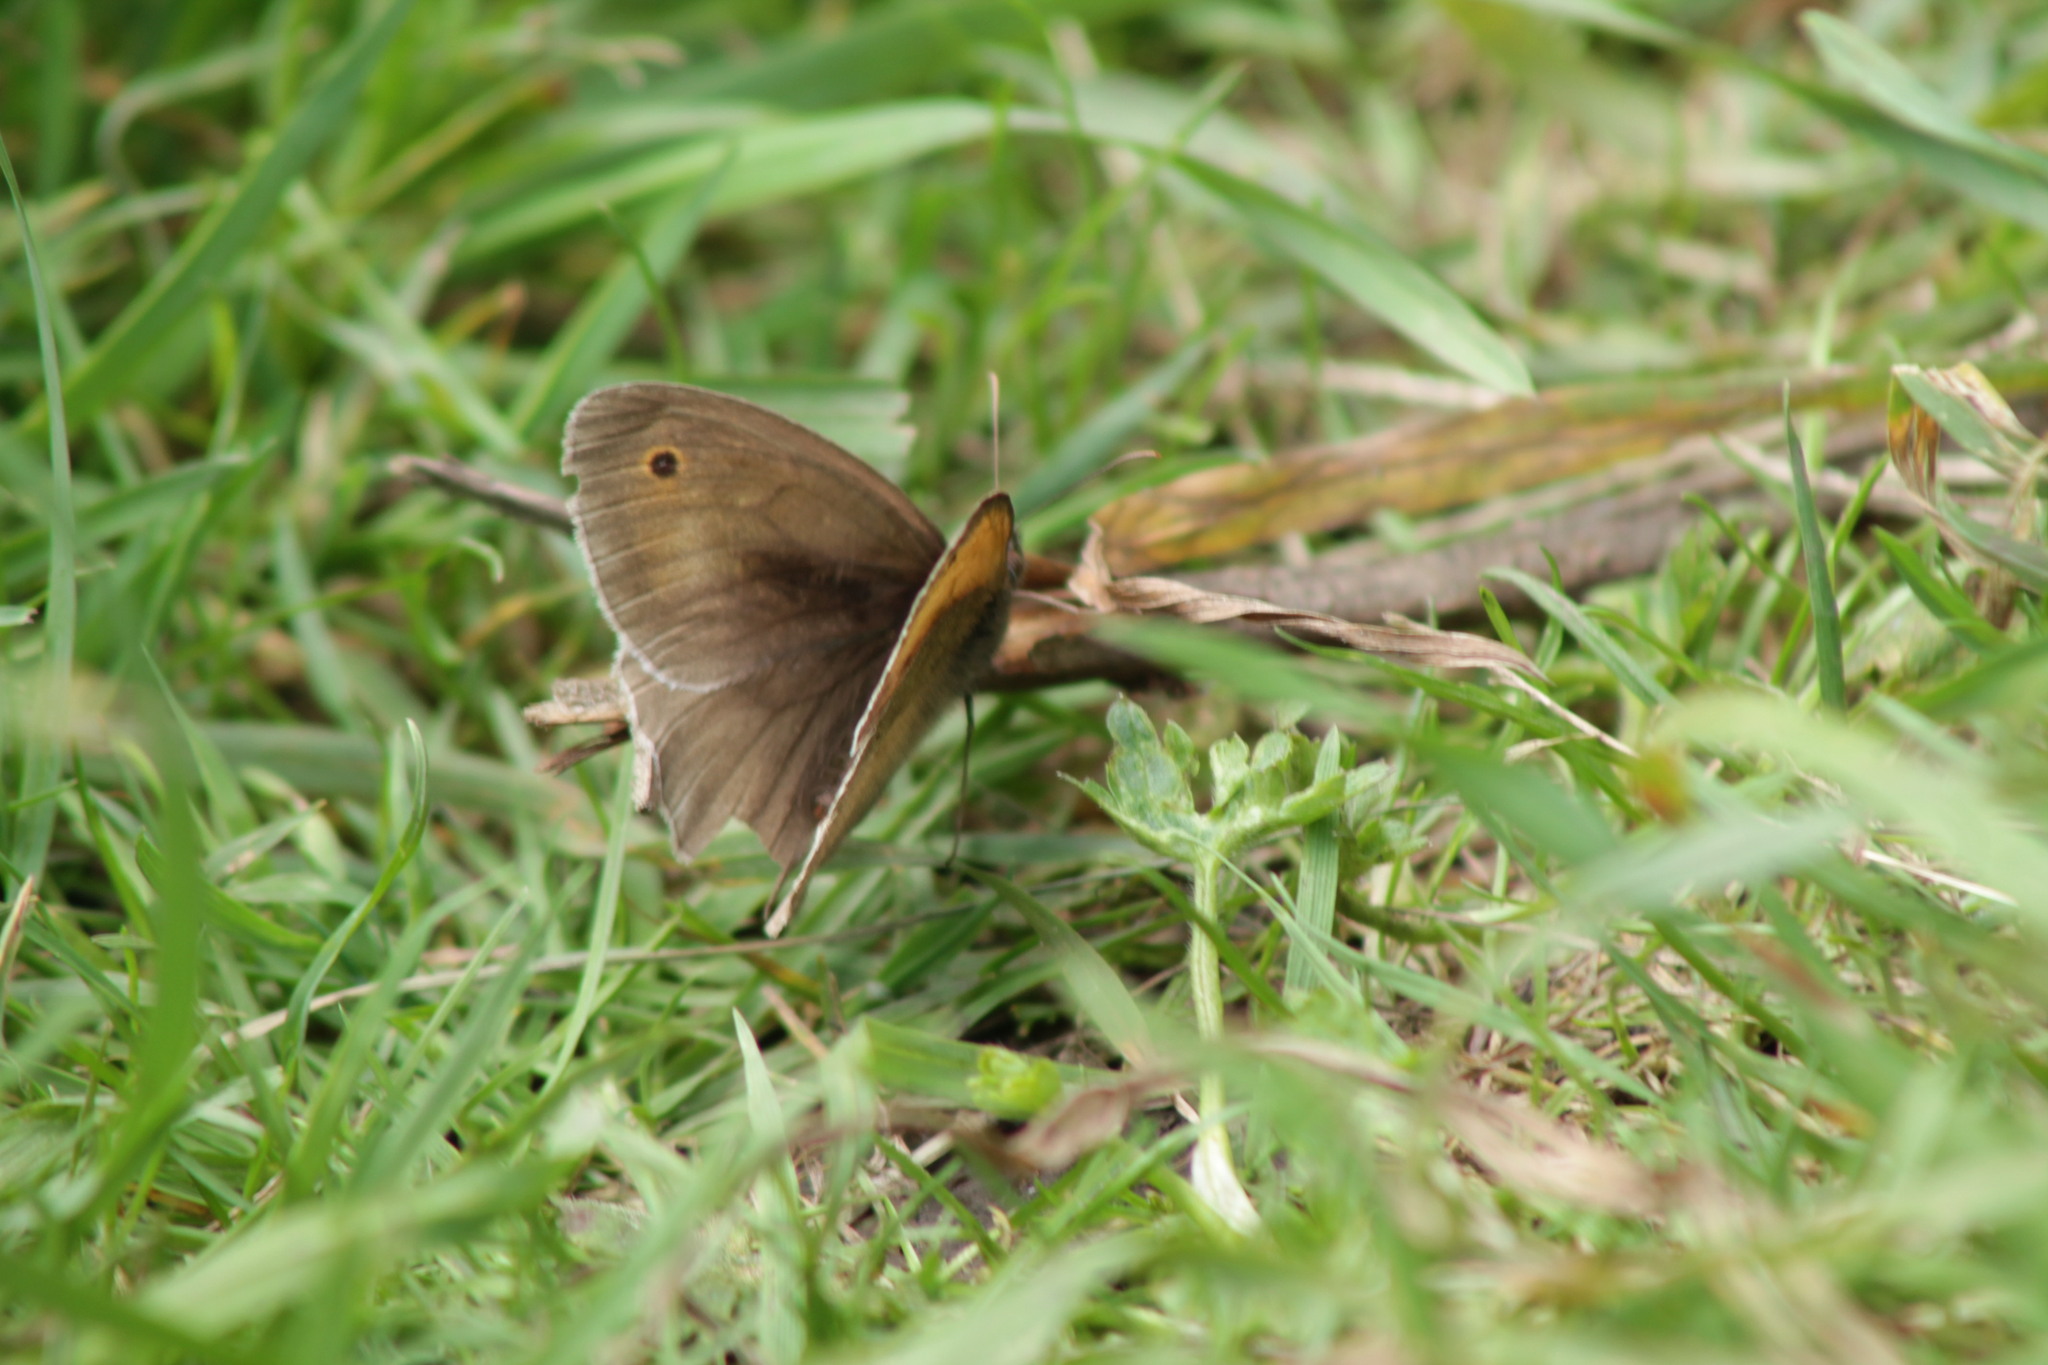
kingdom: Animalia
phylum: Arthropoda
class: Insecta
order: Lepidoptera
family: Nymphalidae
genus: Maniola
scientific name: Maniola jurtina
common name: Meadow brown
